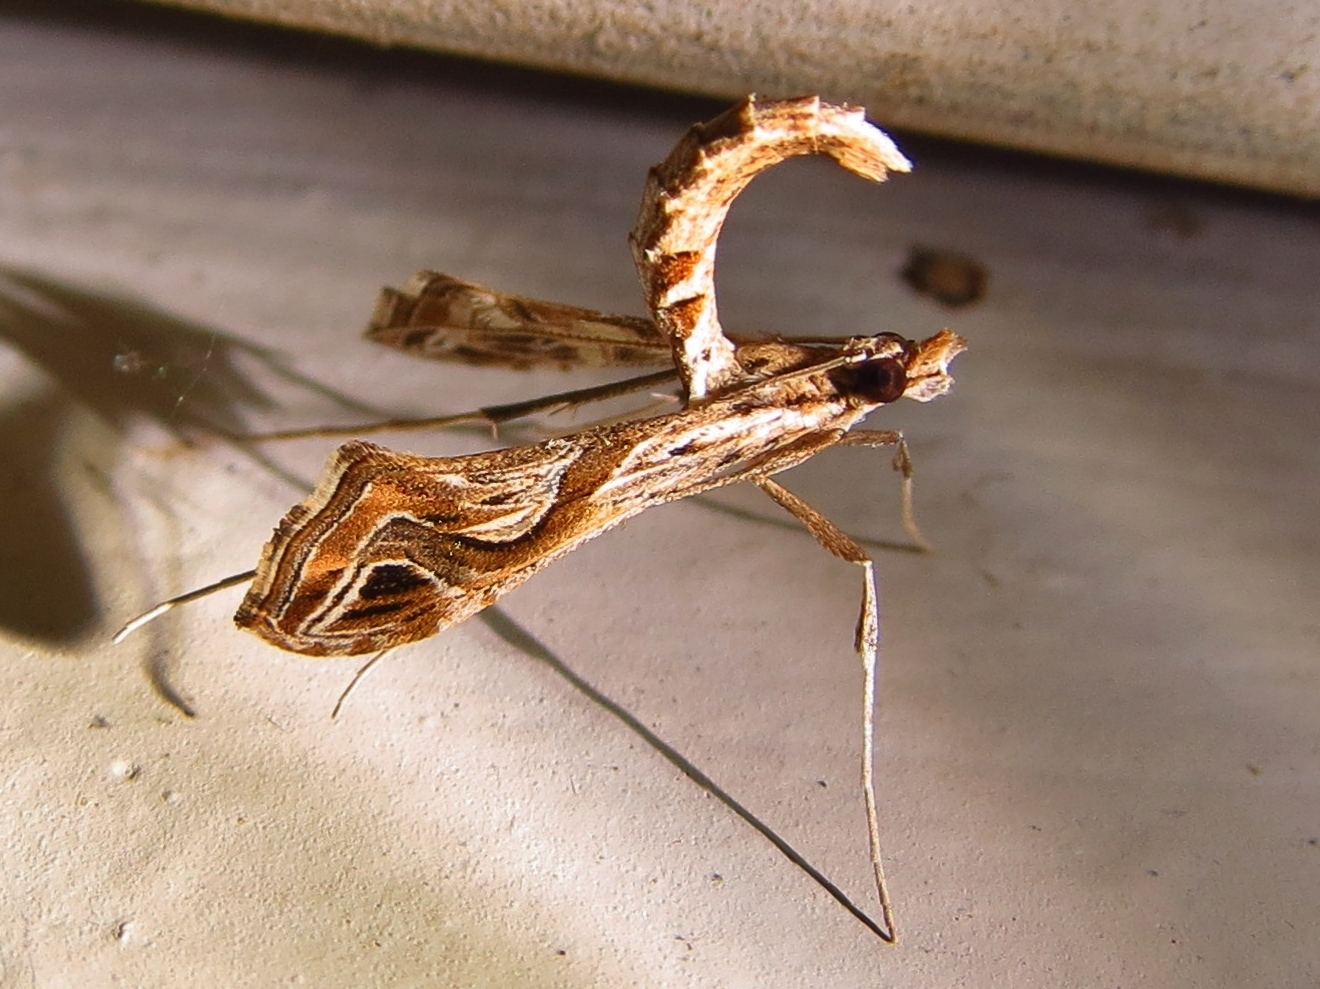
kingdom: Animalia
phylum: Arthropoda
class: Insecta
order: Lepidoptera
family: Crambidae
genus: Lineodes
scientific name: Lineodes integra
